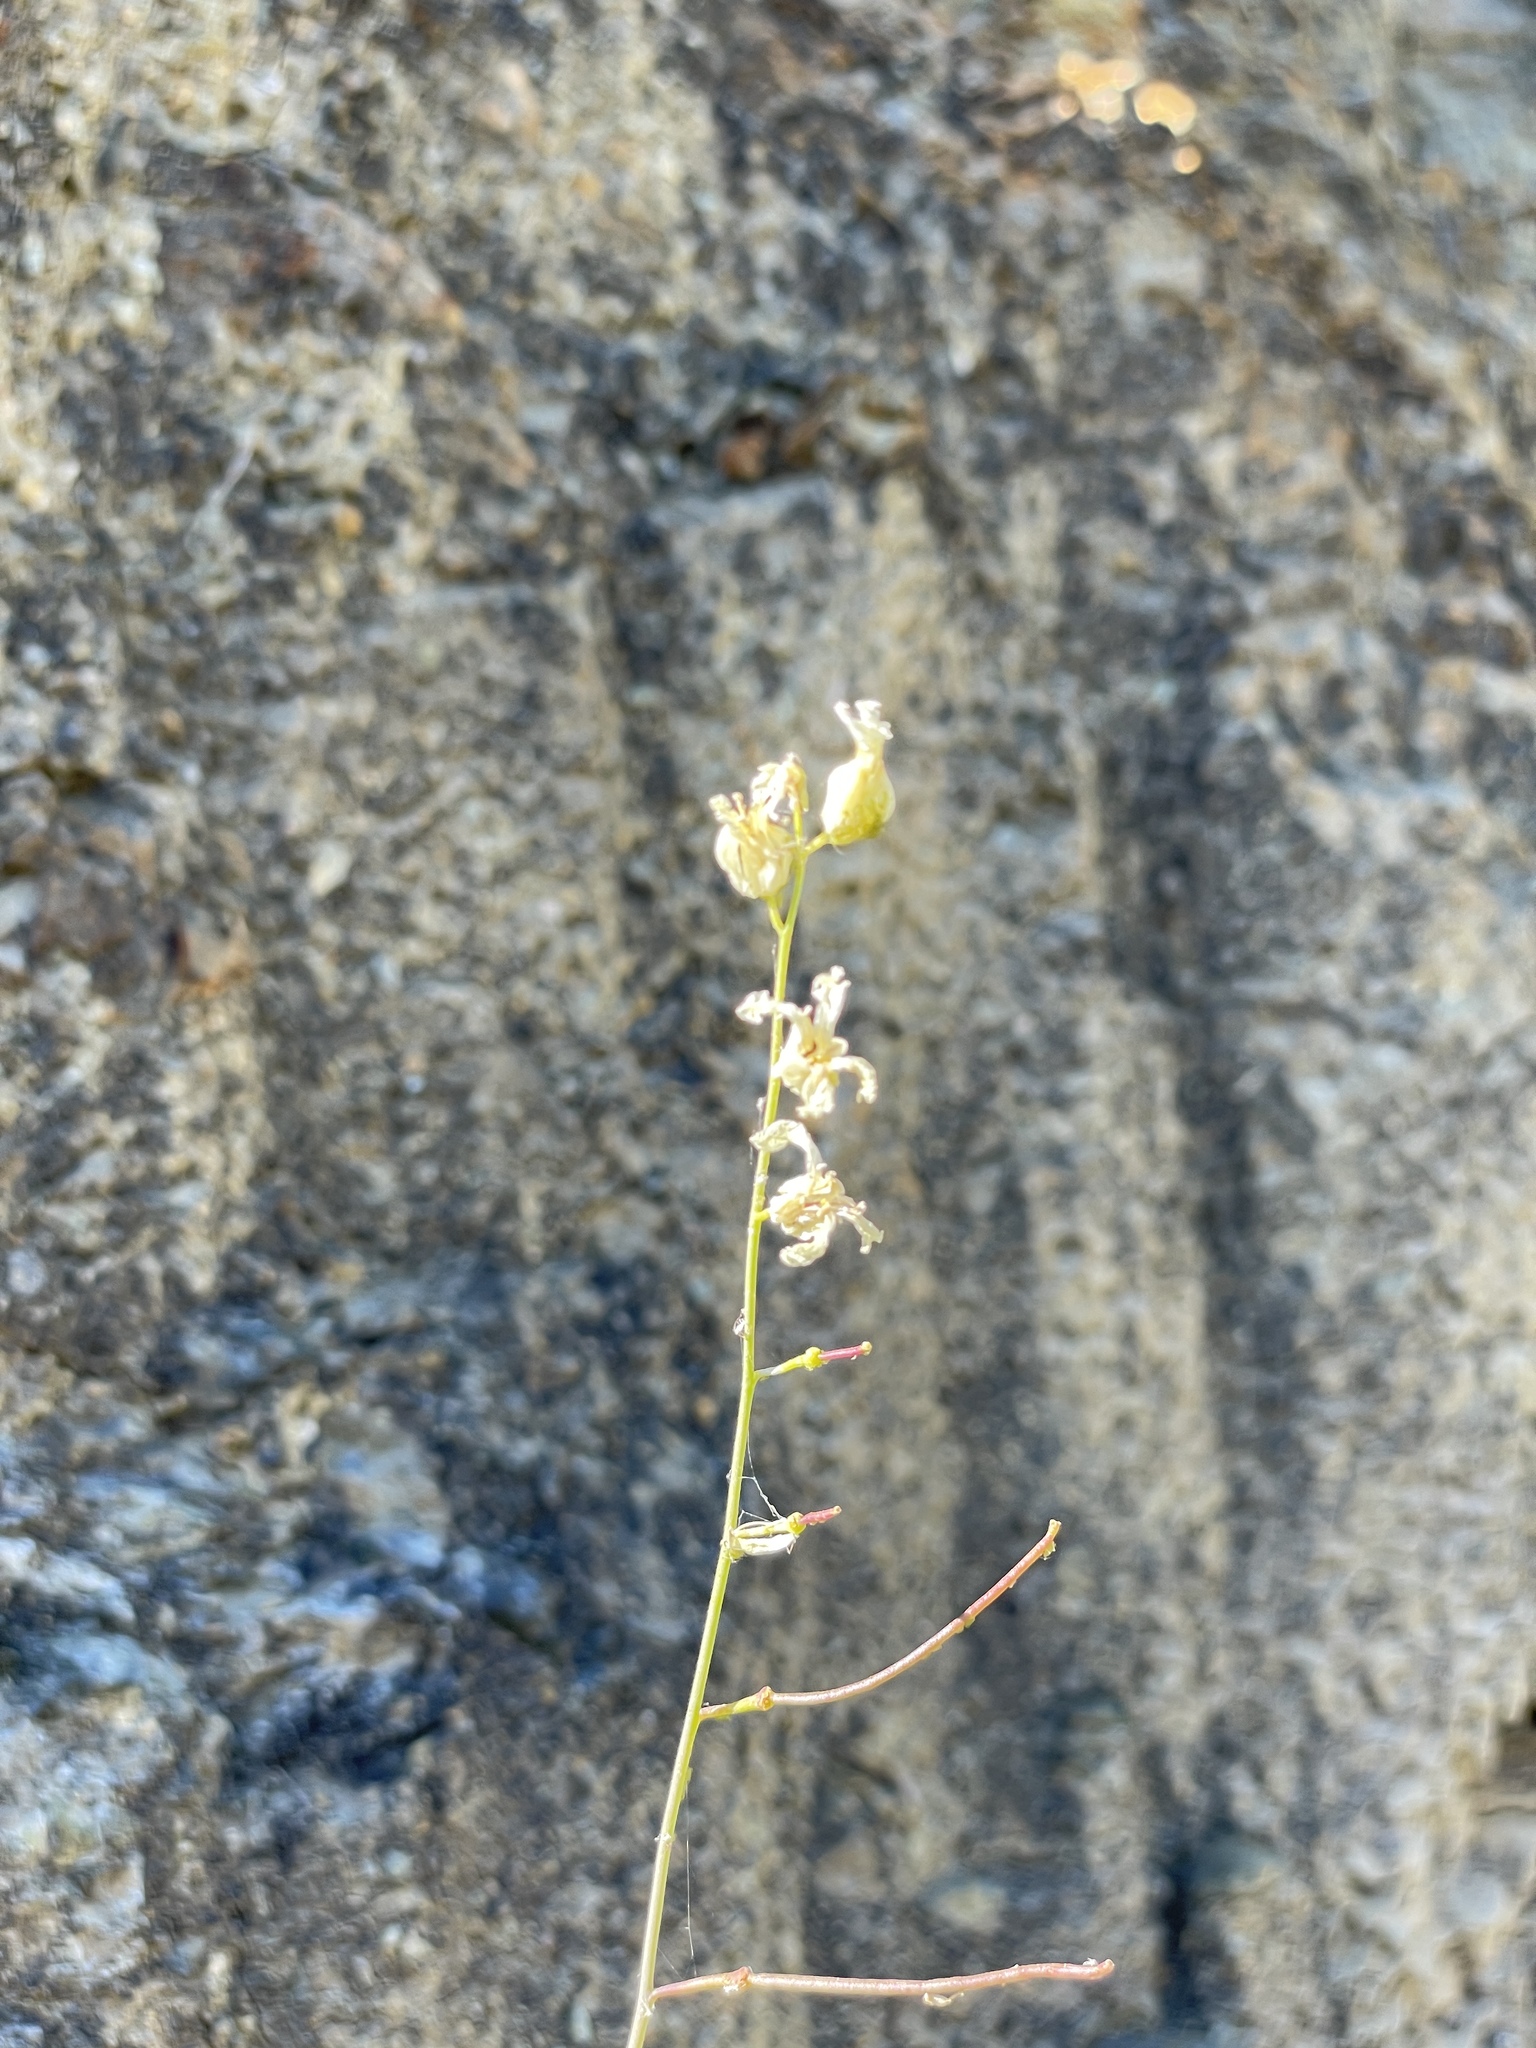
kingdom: Plantae
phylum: Tracheophyta
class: Magnoliopsida
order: Brassicales
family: Brassicaceae
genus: Streptanthus
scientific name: Streptanthus glandulosus
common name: Jewel-flower
